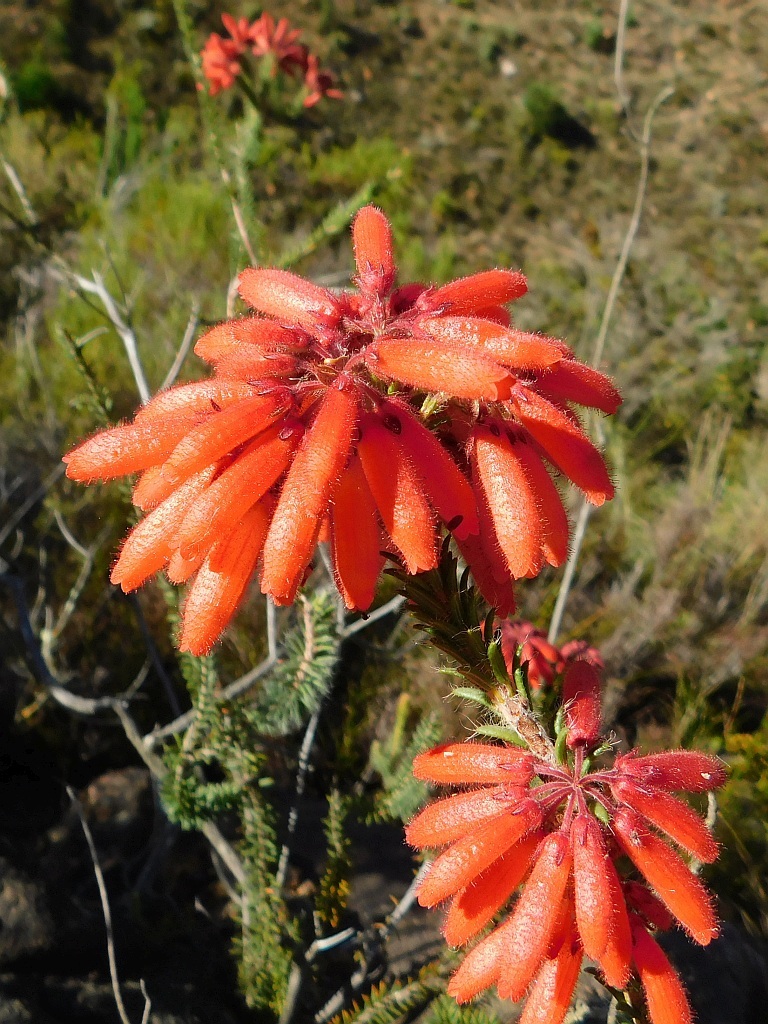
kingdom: Plantae
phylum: Tracheophyta
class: Magnoliopsida
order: Ericales
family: Ericaceae
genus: Erica
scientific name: Erica cerinthoides
